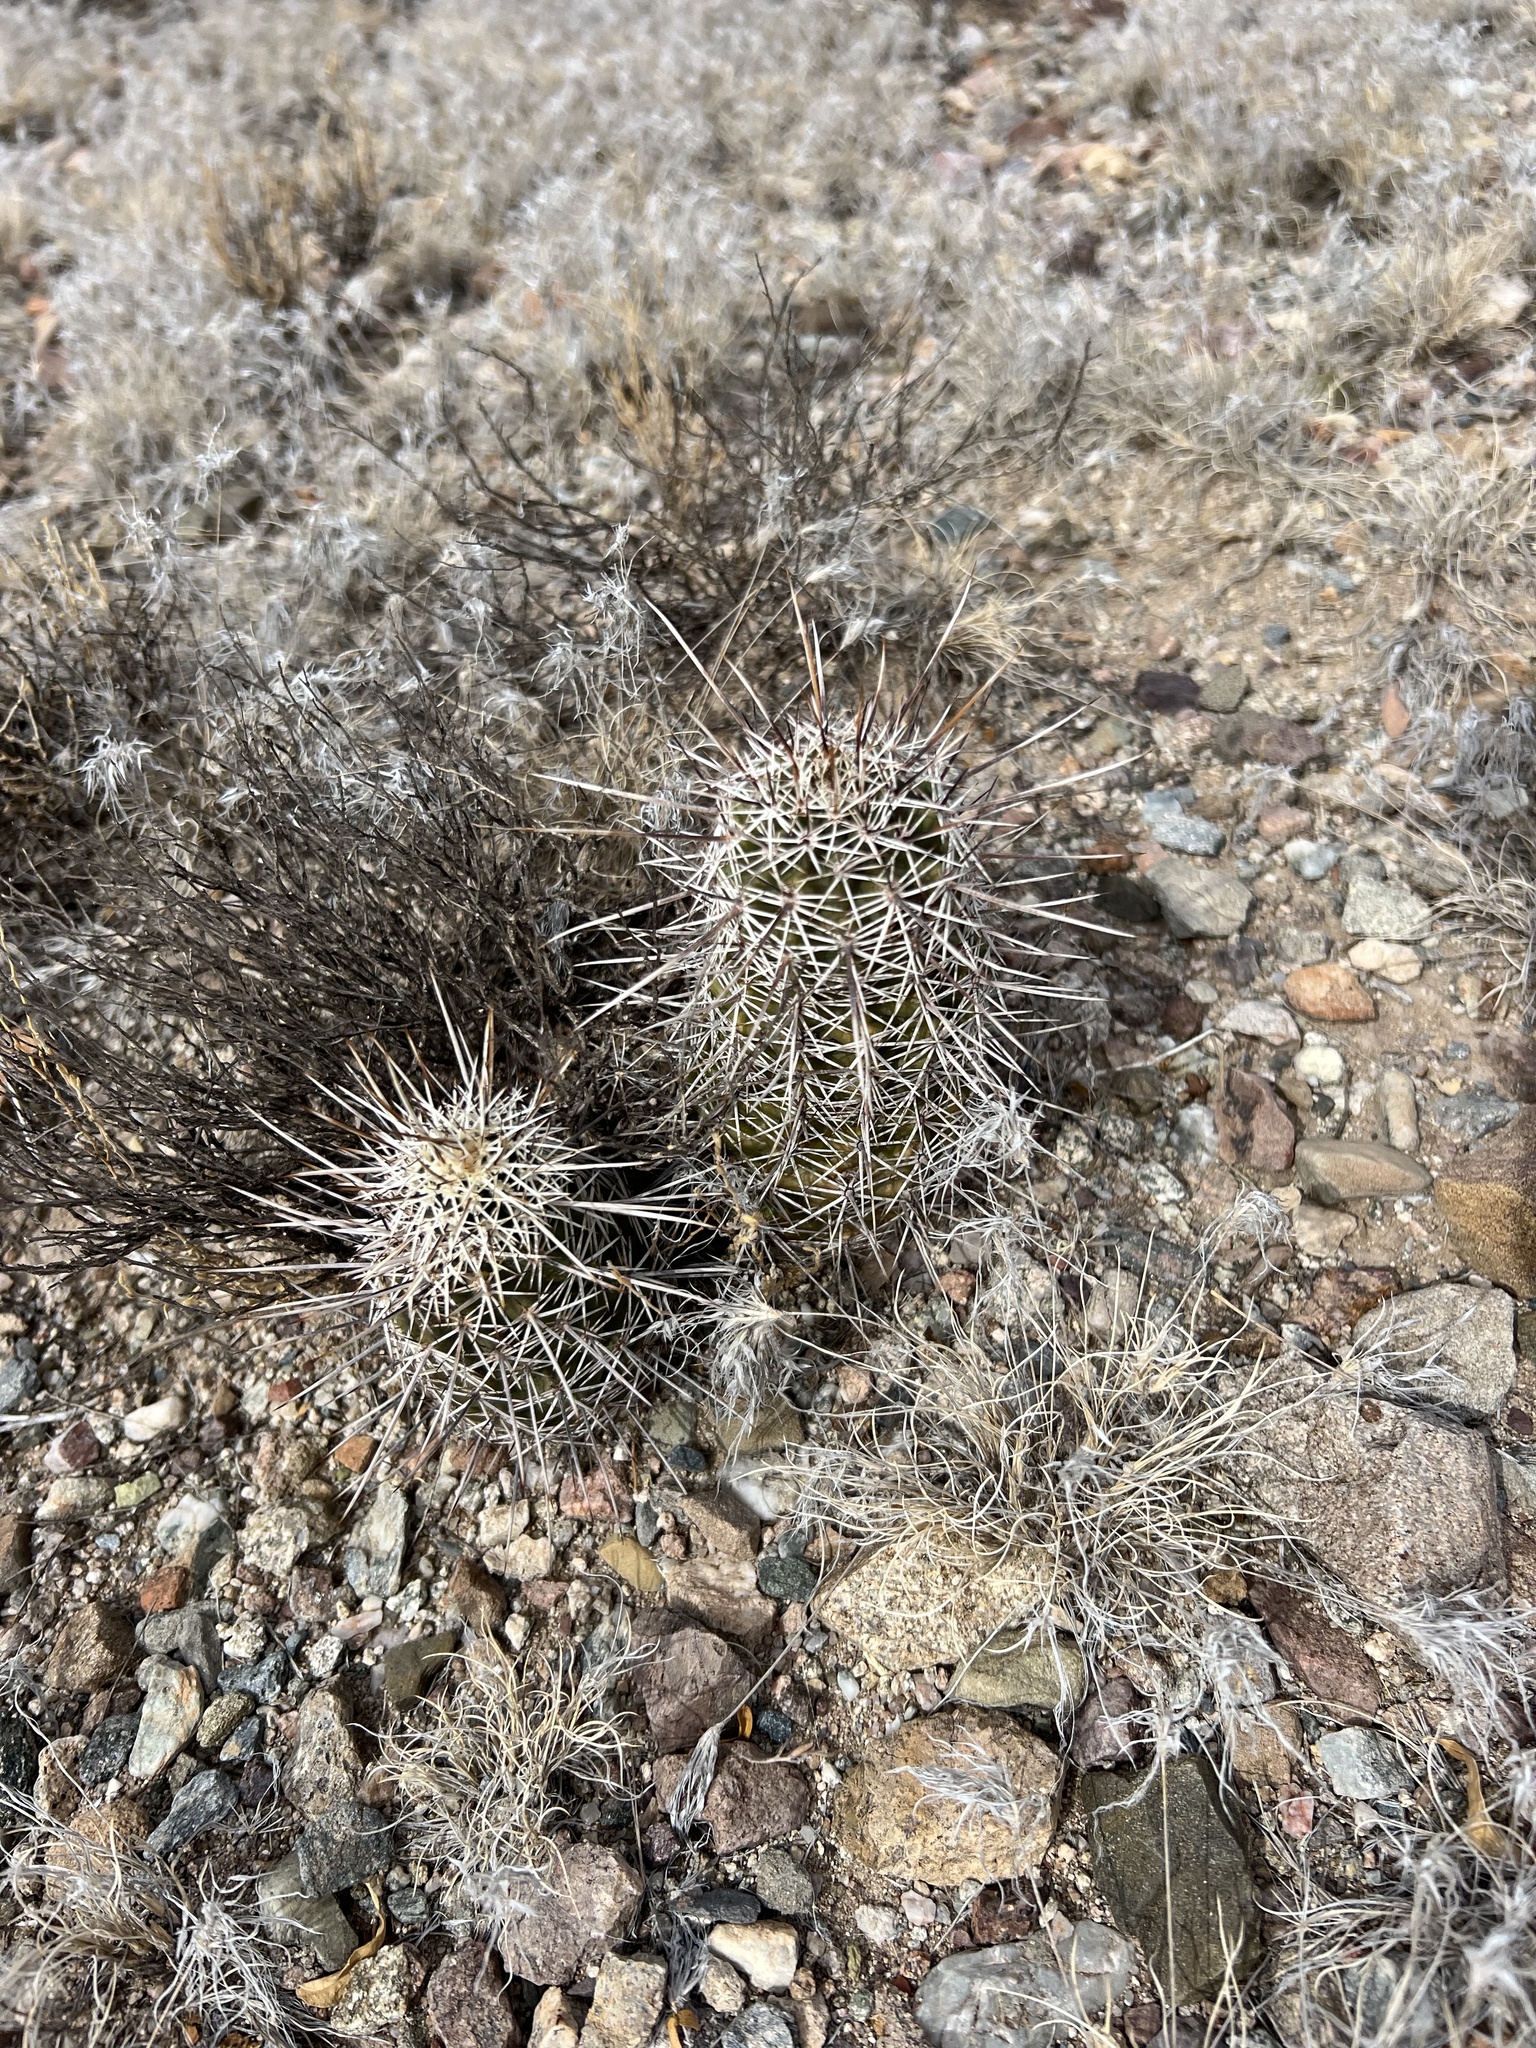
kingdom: Plantae
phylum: Tracheophyta
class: Magnoliopsida
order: Caryophyllales
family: Cactaceae
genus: Echinocereus
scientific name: Echinocereus fasciculatus
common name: Bundle hedgehog
